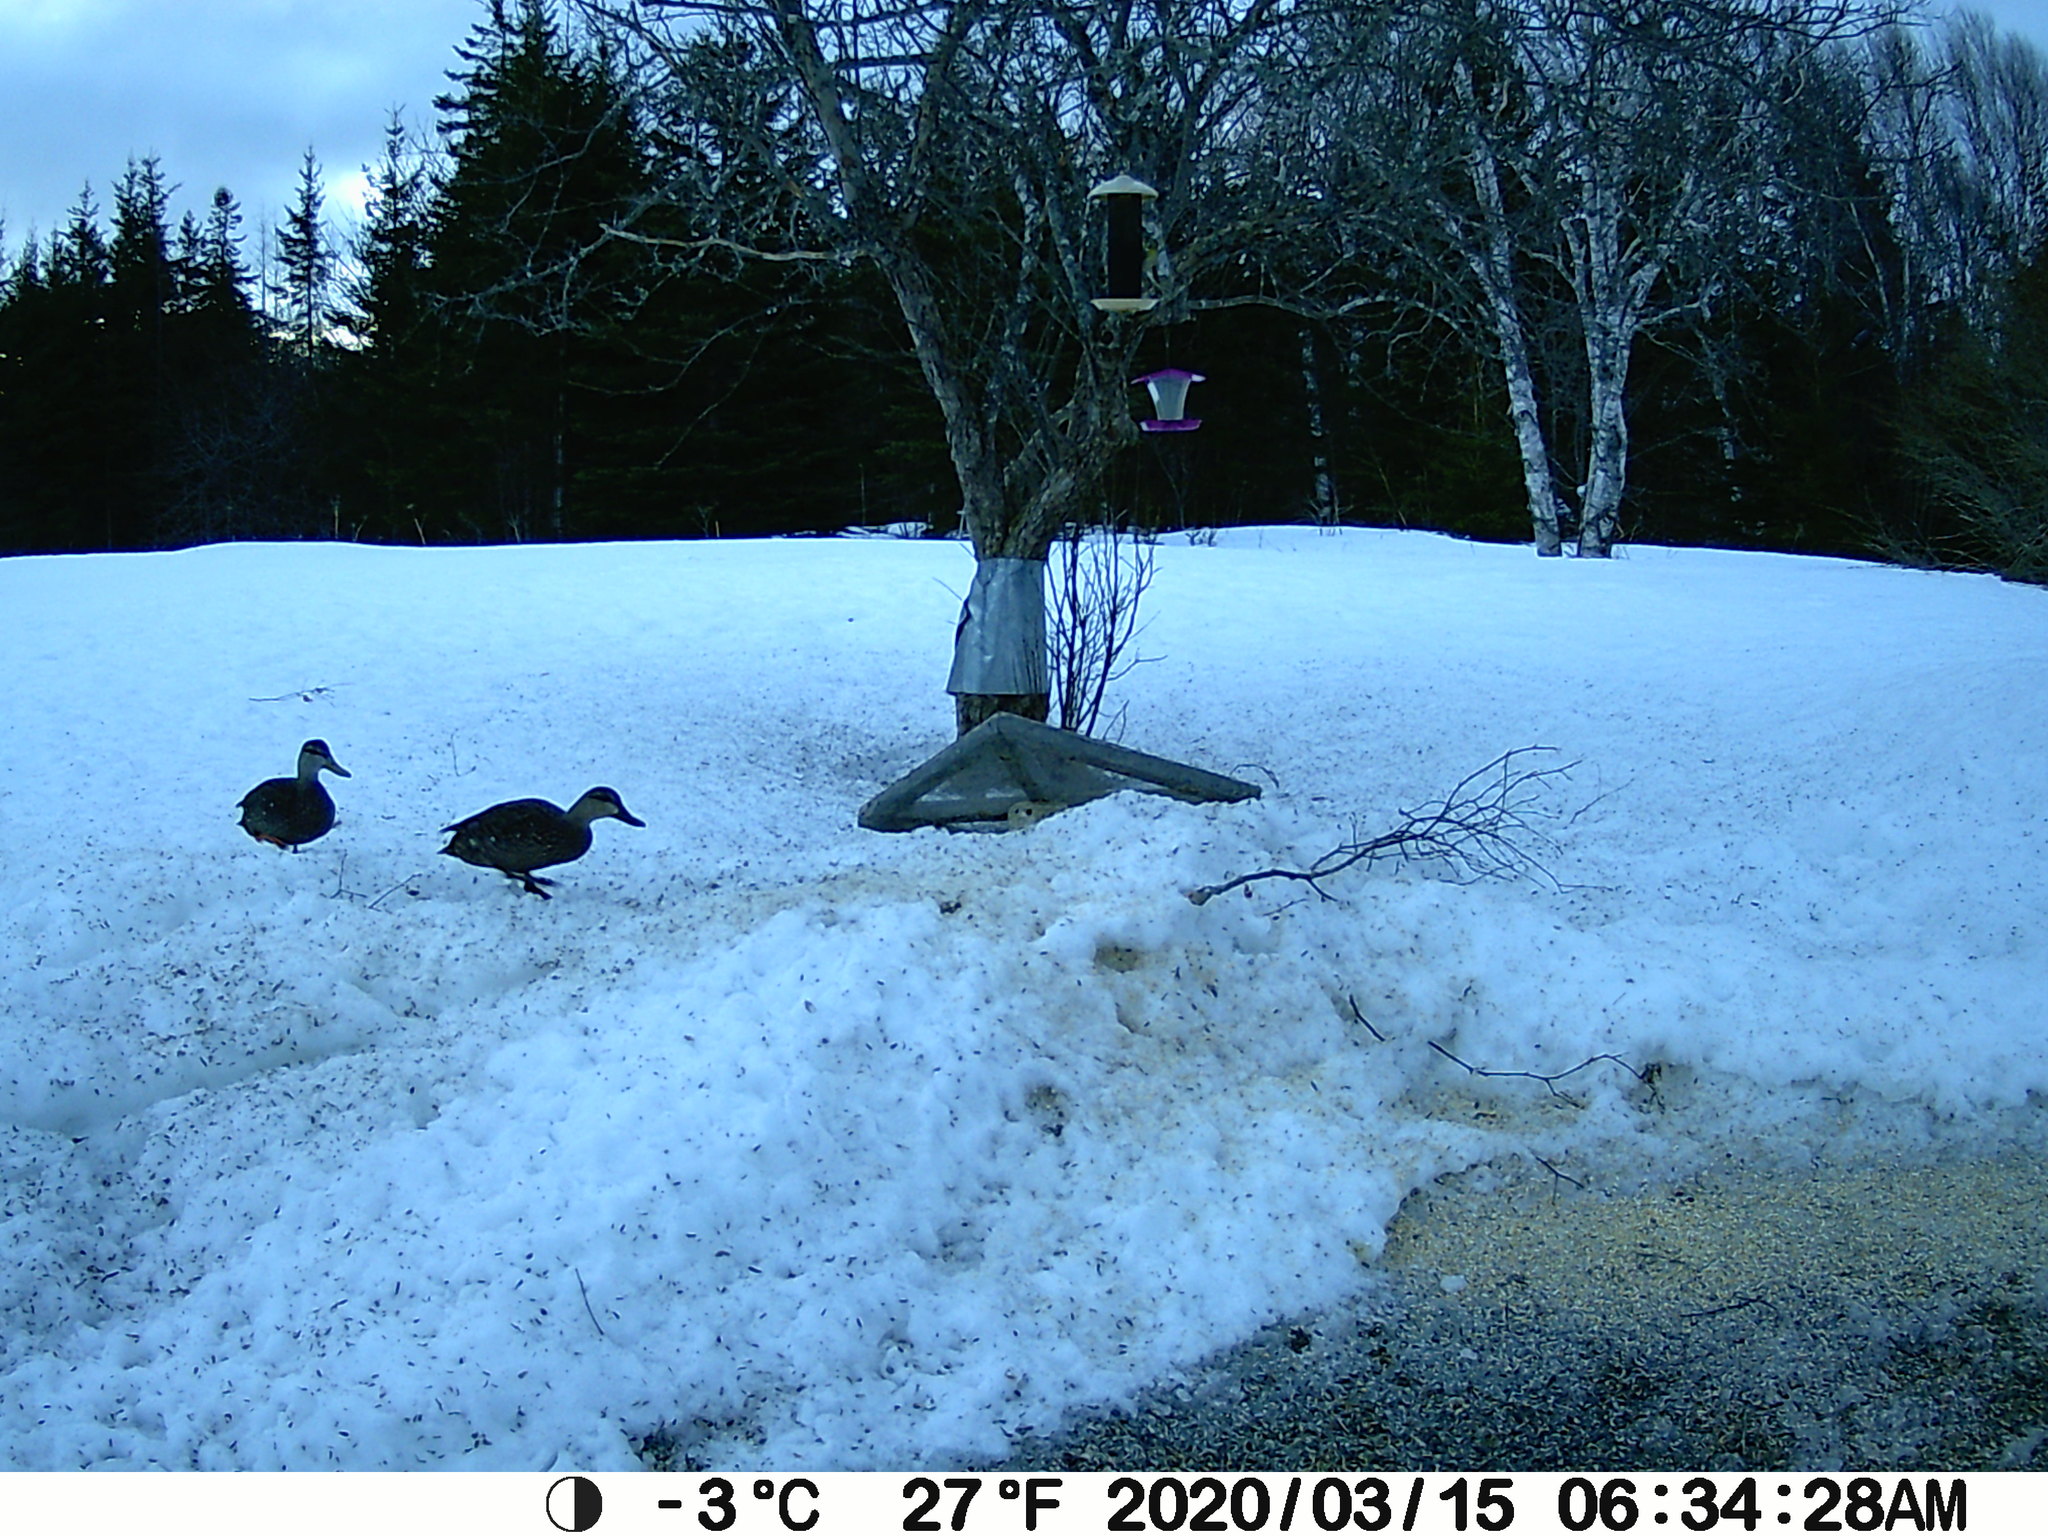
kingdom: Animalia
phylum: Chordata
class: Aves
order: Anseriformes
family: Anatidae
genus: Anas
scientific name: Anas rubripes
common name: American black duck
